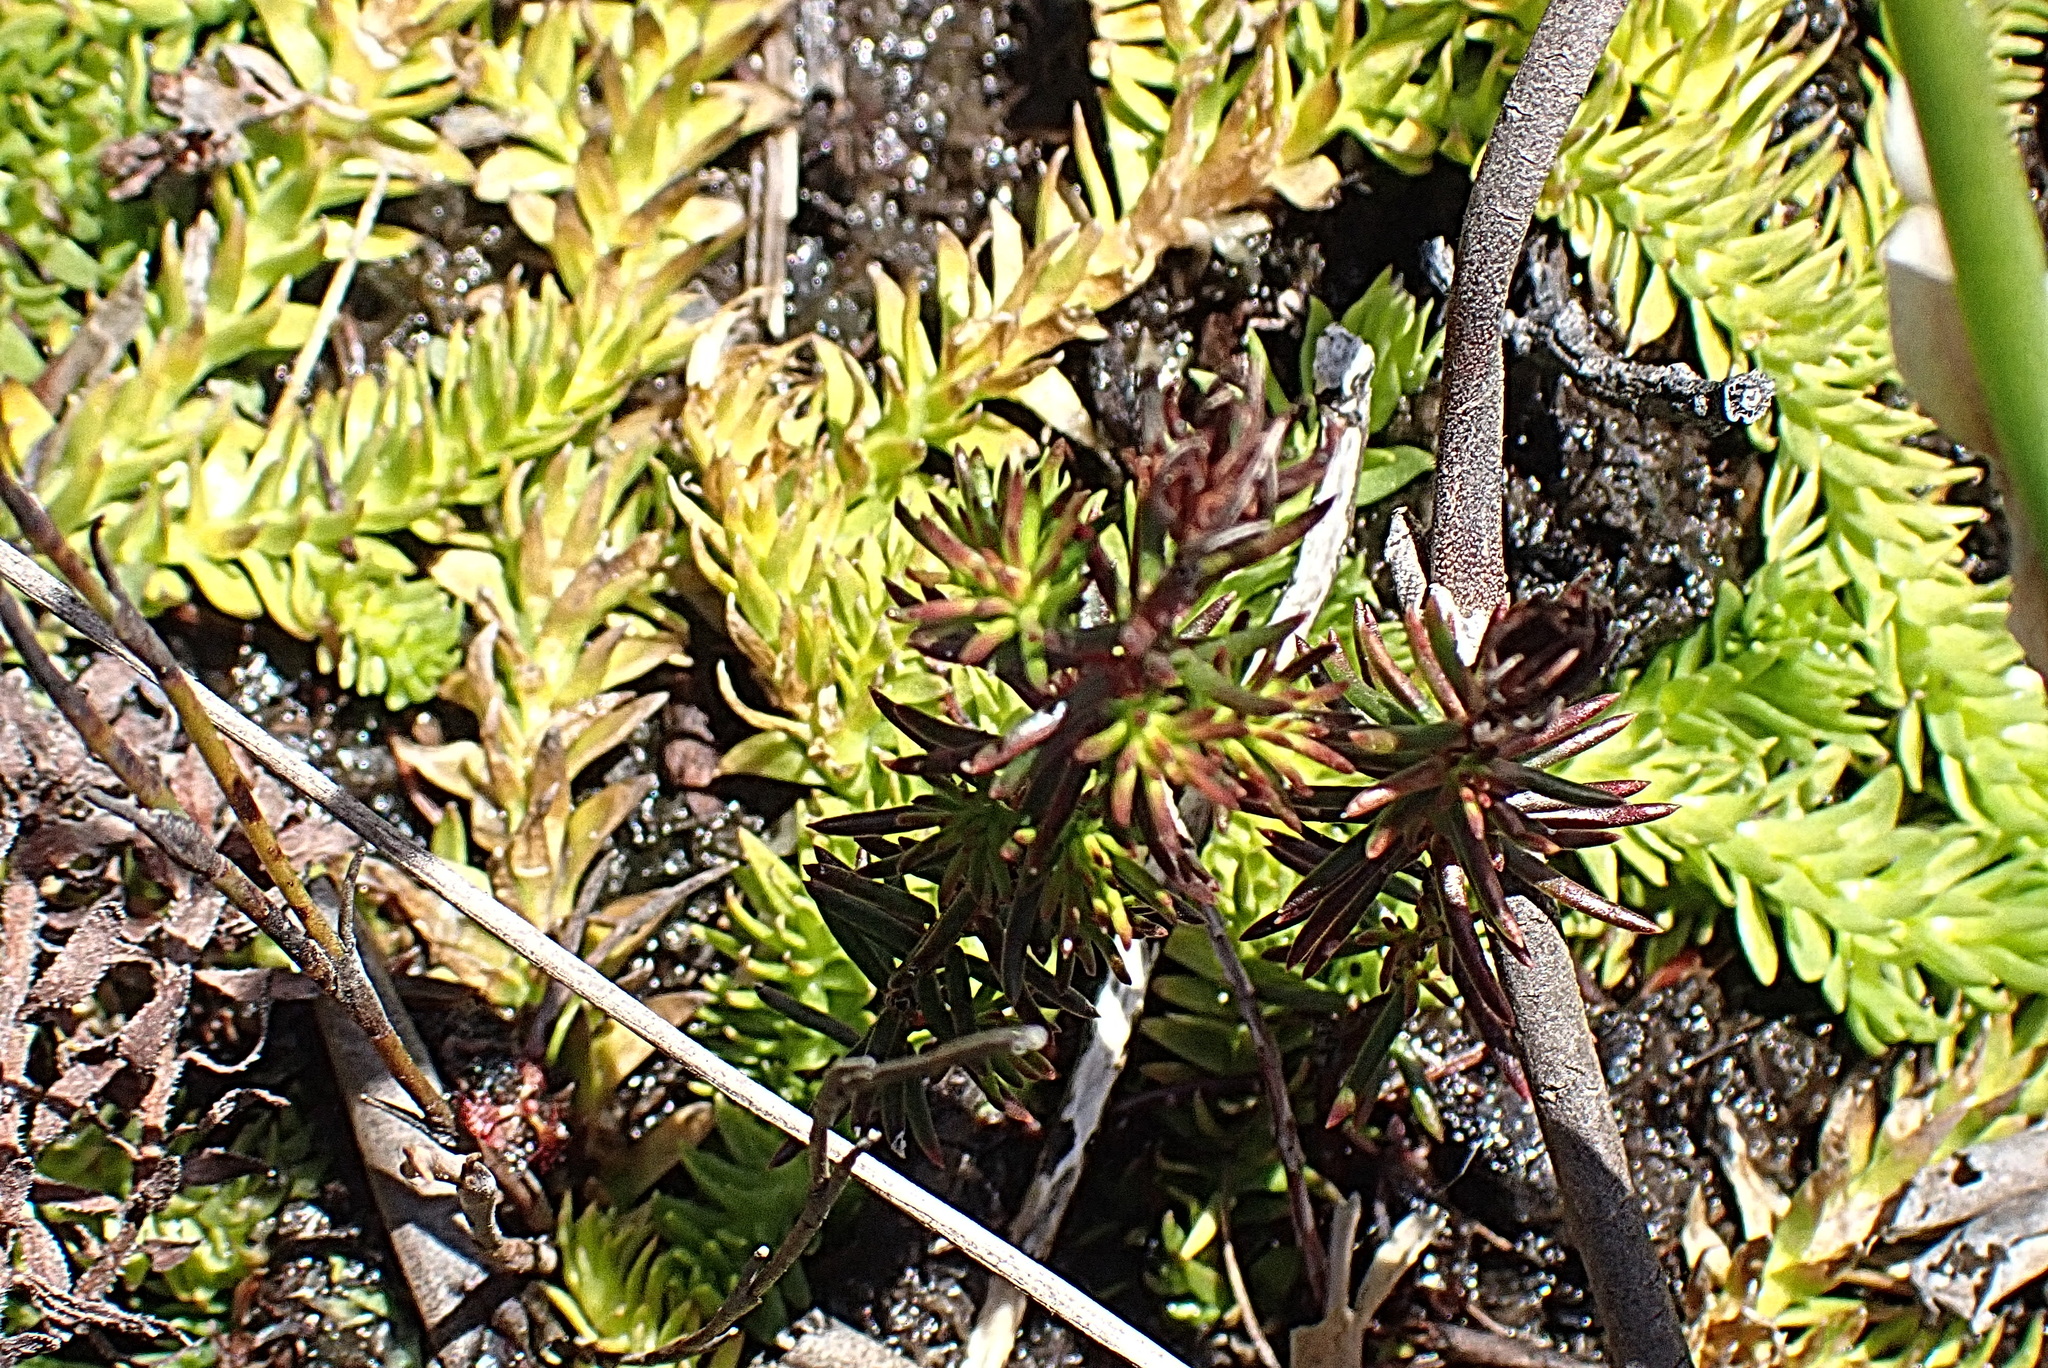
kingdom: Plantae
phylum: Tracheophyta
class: Lycopodiopsida
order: Lycopodiales
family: Lycopodiaceae
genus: Pseudolycopodiella
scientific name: Pseudolycopodiella caroliniana
